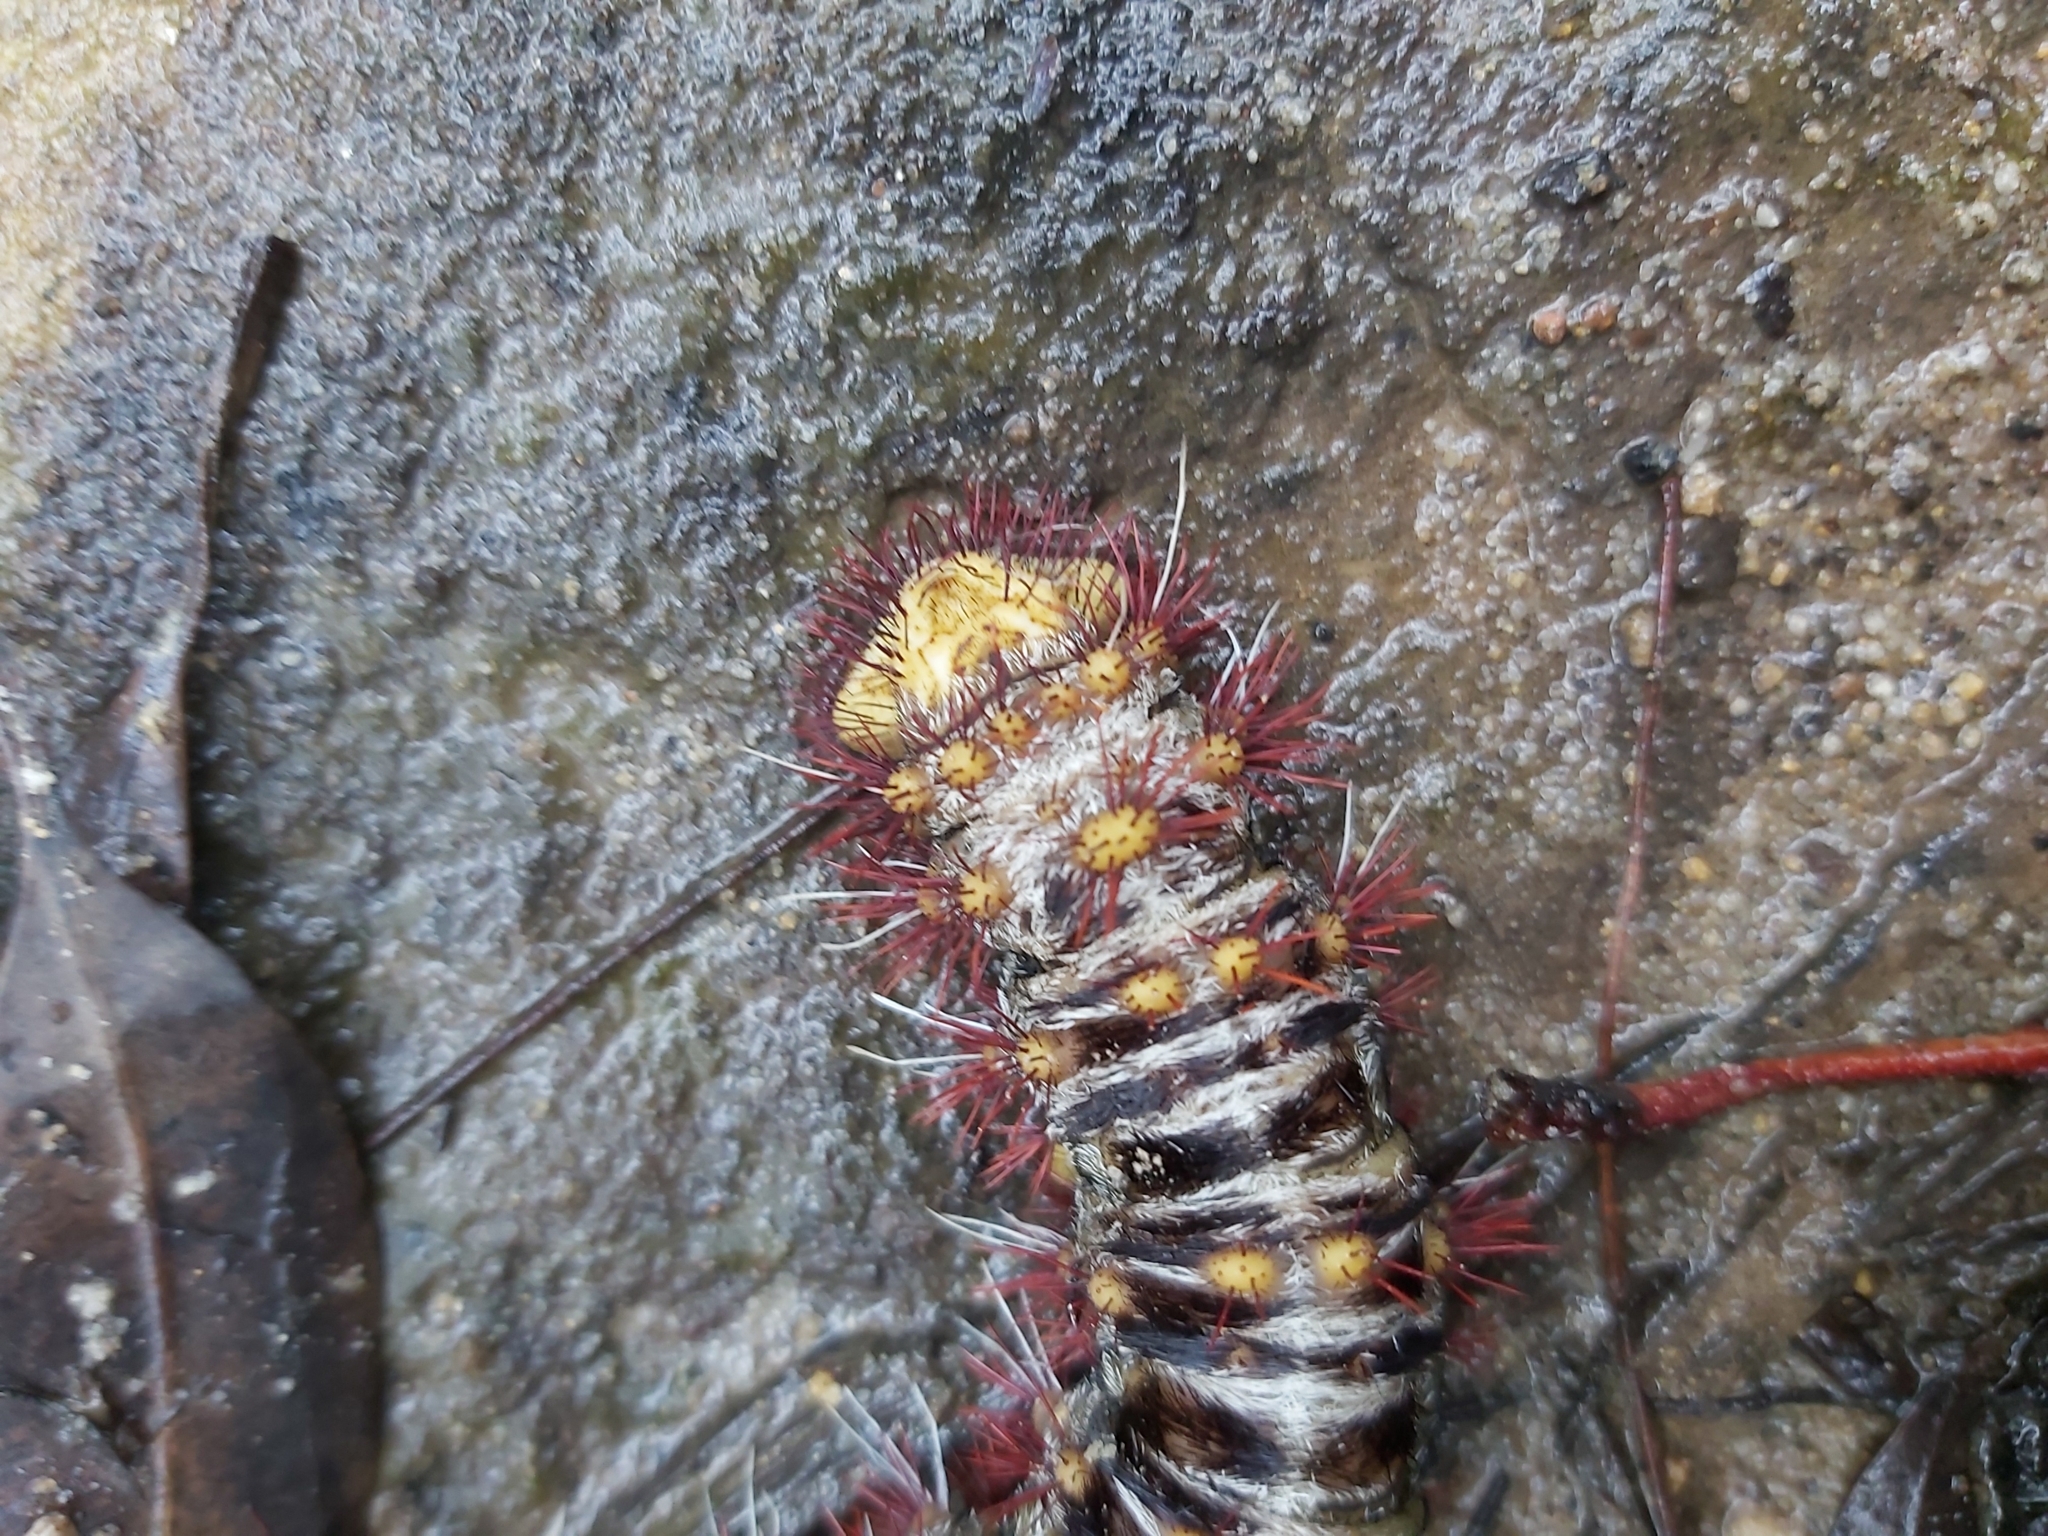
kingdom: Animalia
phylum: Arthropoda
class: Insecta
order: Lepidoptera
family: Anthelidae
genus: Chelepteryx
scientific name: Chelepteryx collesi
